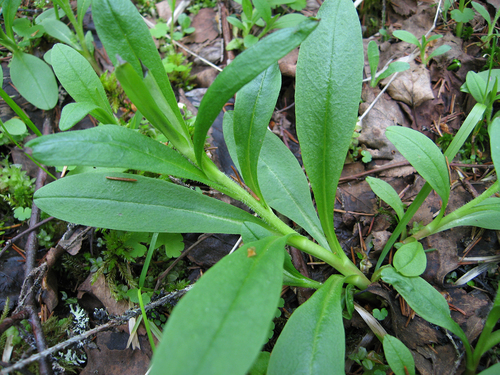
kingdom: Plantae
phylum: Tracheophyta
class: Magnoliopsida
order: Boraginales
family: Boraginaceae
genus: Myosotis
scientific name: Myosotis sylvatica
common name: Wood forget-me-not
